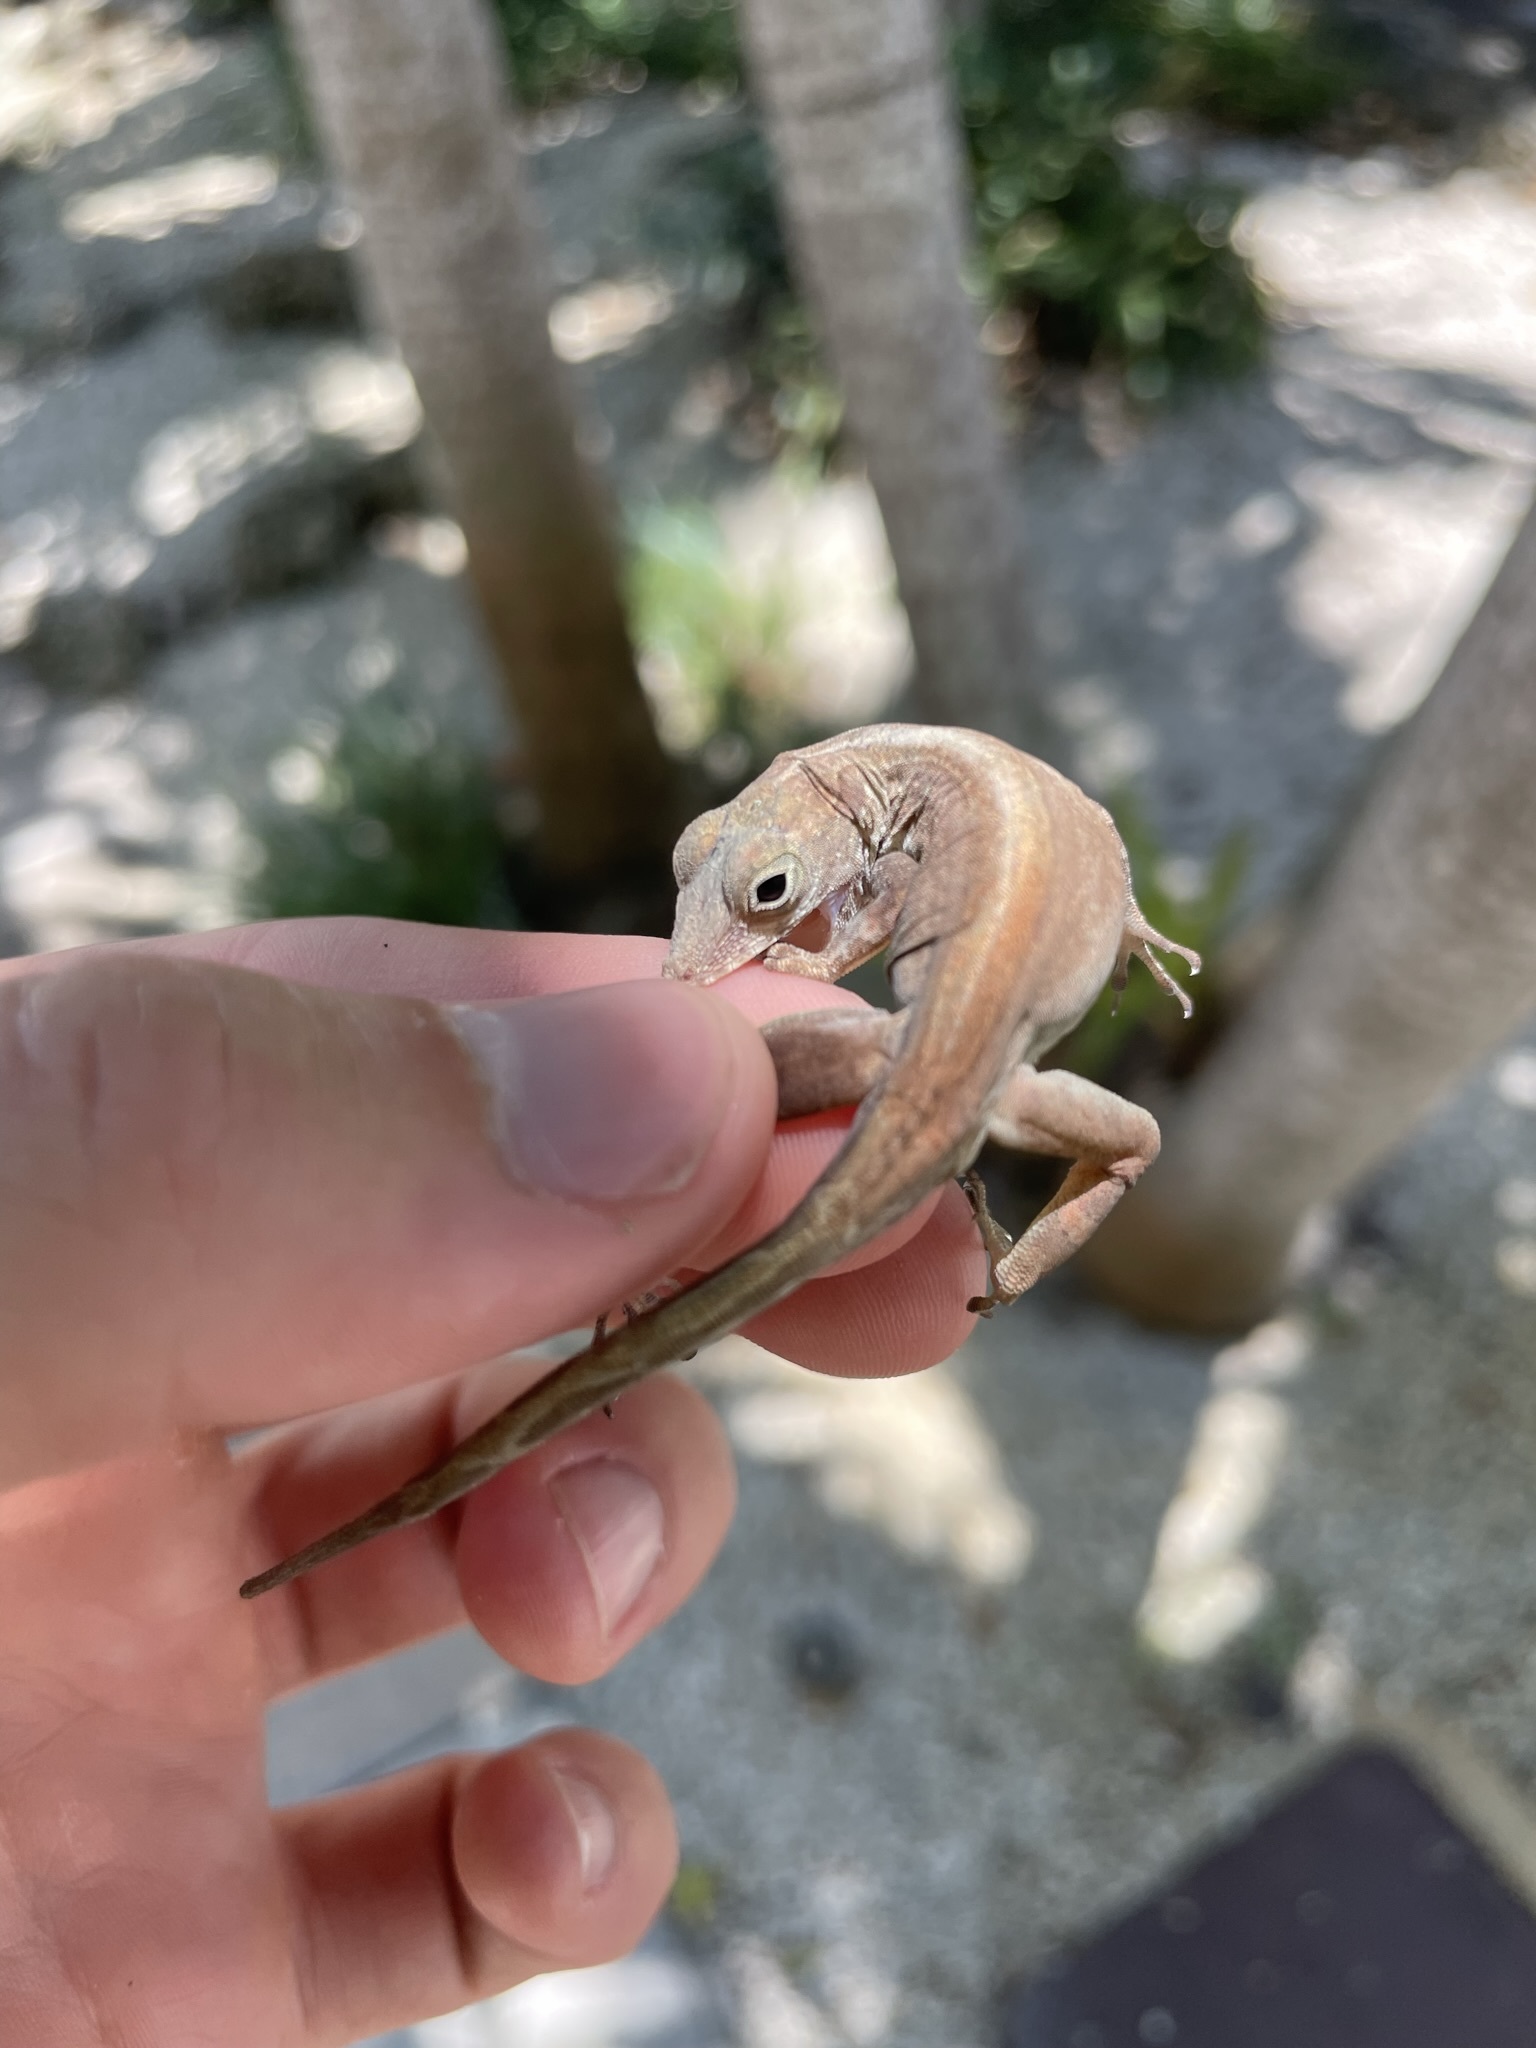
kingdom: Animalia
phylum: Chordata
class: Squamata
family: Dactyloidae
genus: Anolis
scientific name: Anolis cristatellus
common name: Crested anole
